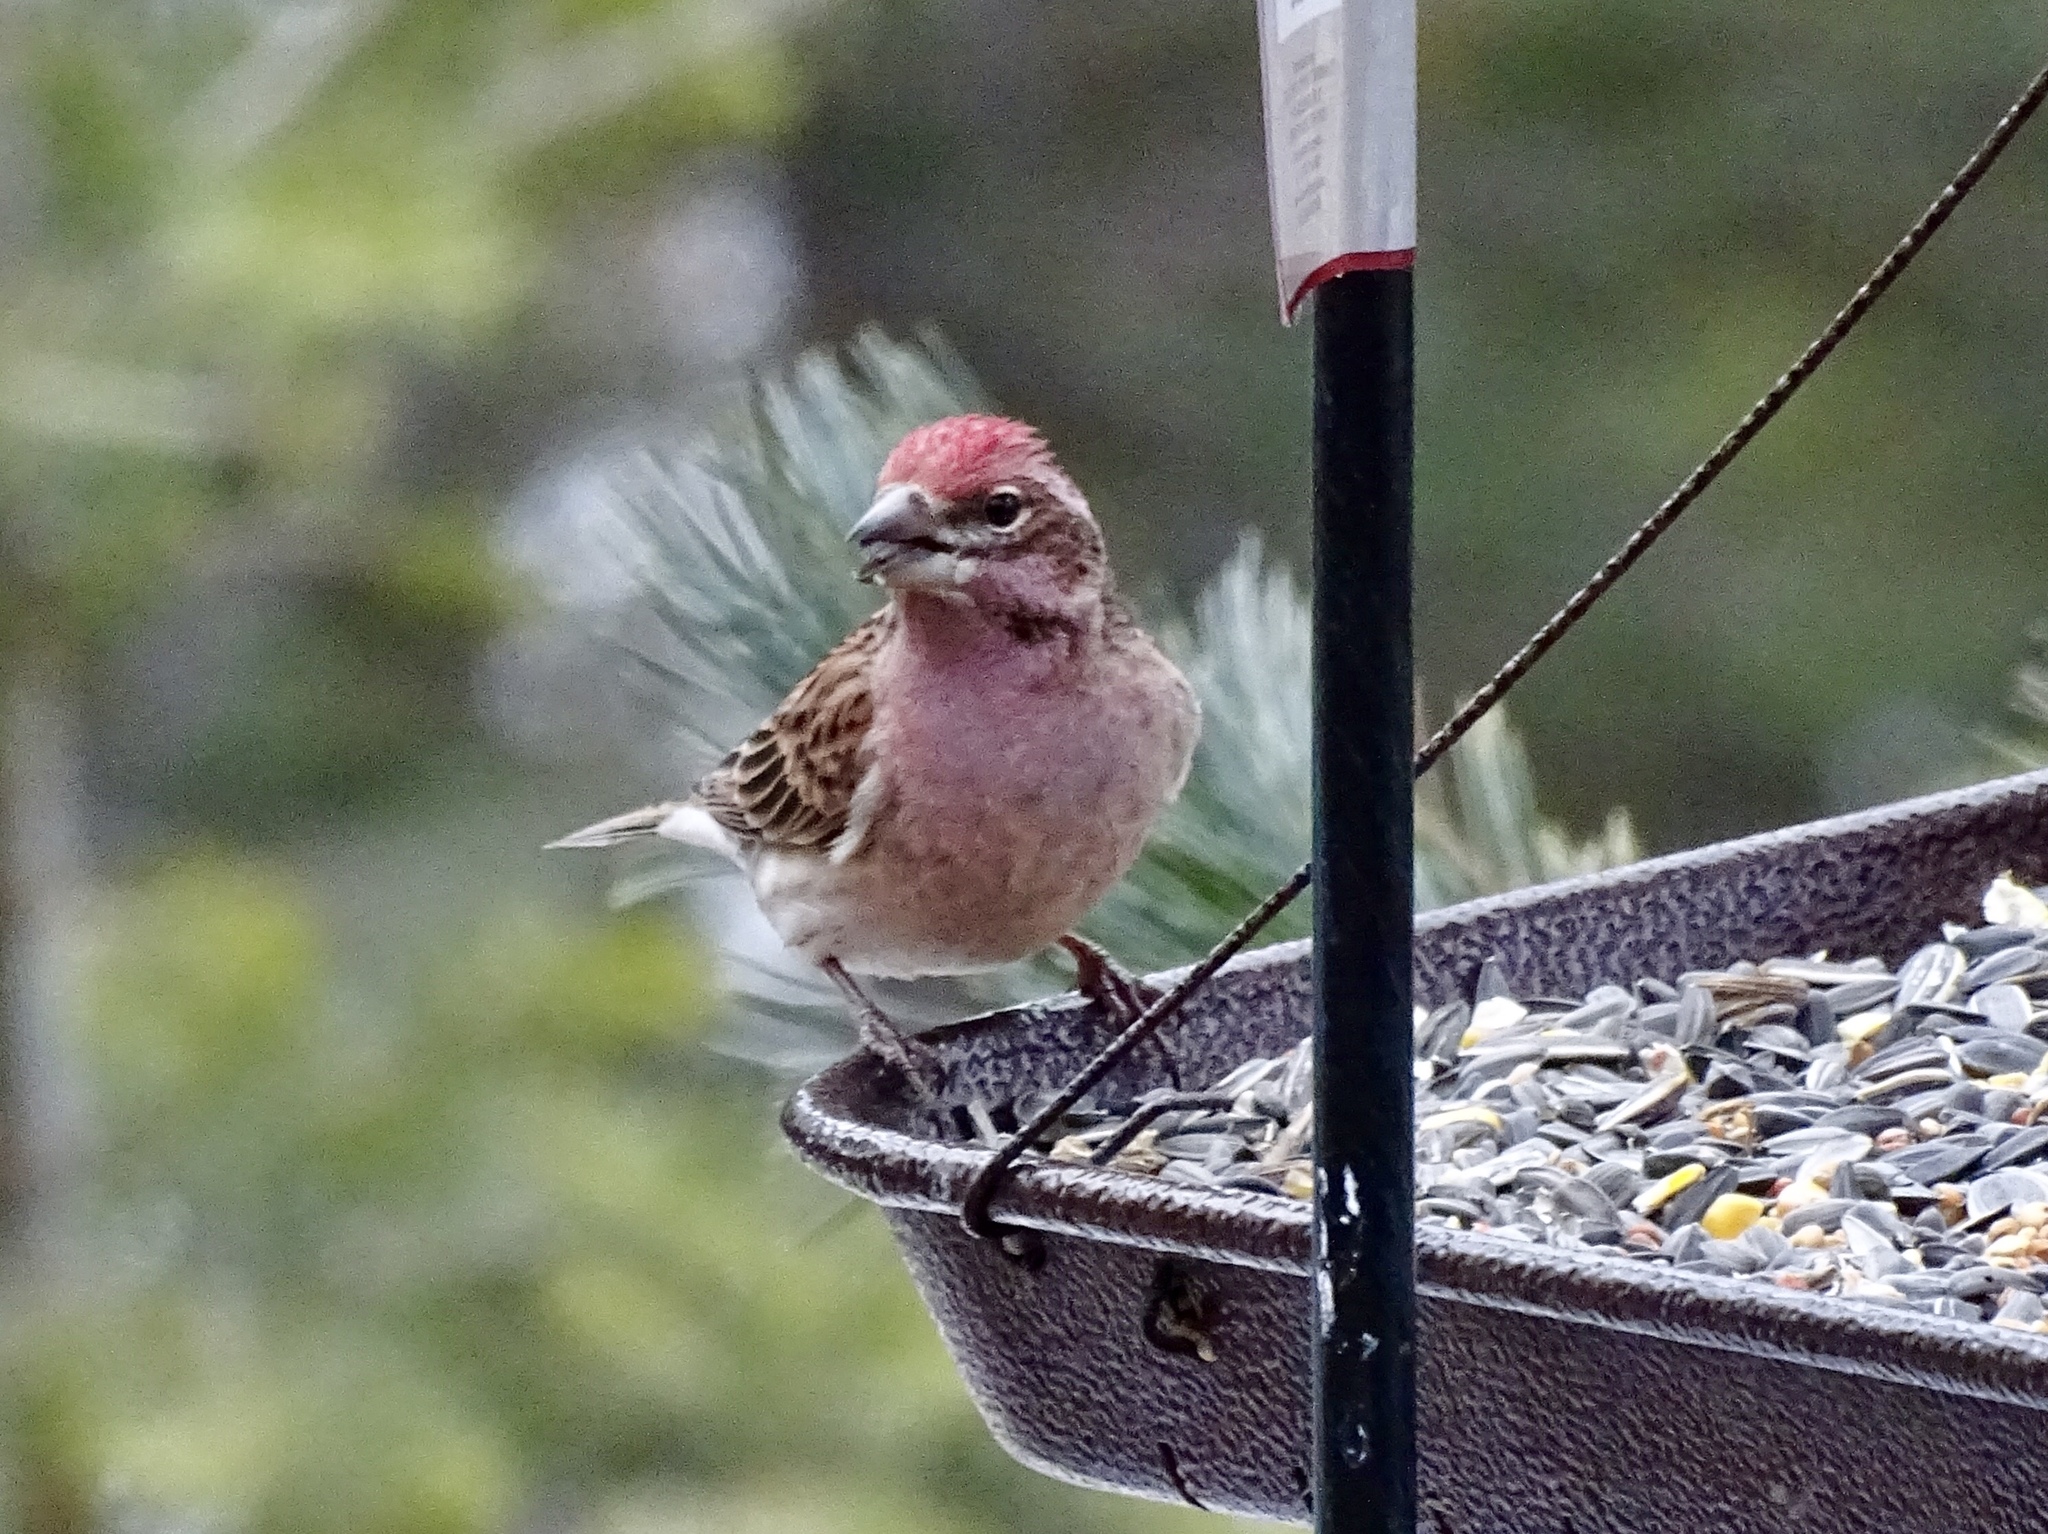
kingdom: Animalia
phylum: Chordata
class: Aves
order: Passeriformes
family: Fringillidae
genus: Haemorhous
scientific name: Haemorhous cassinii
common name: Cassin's finch
